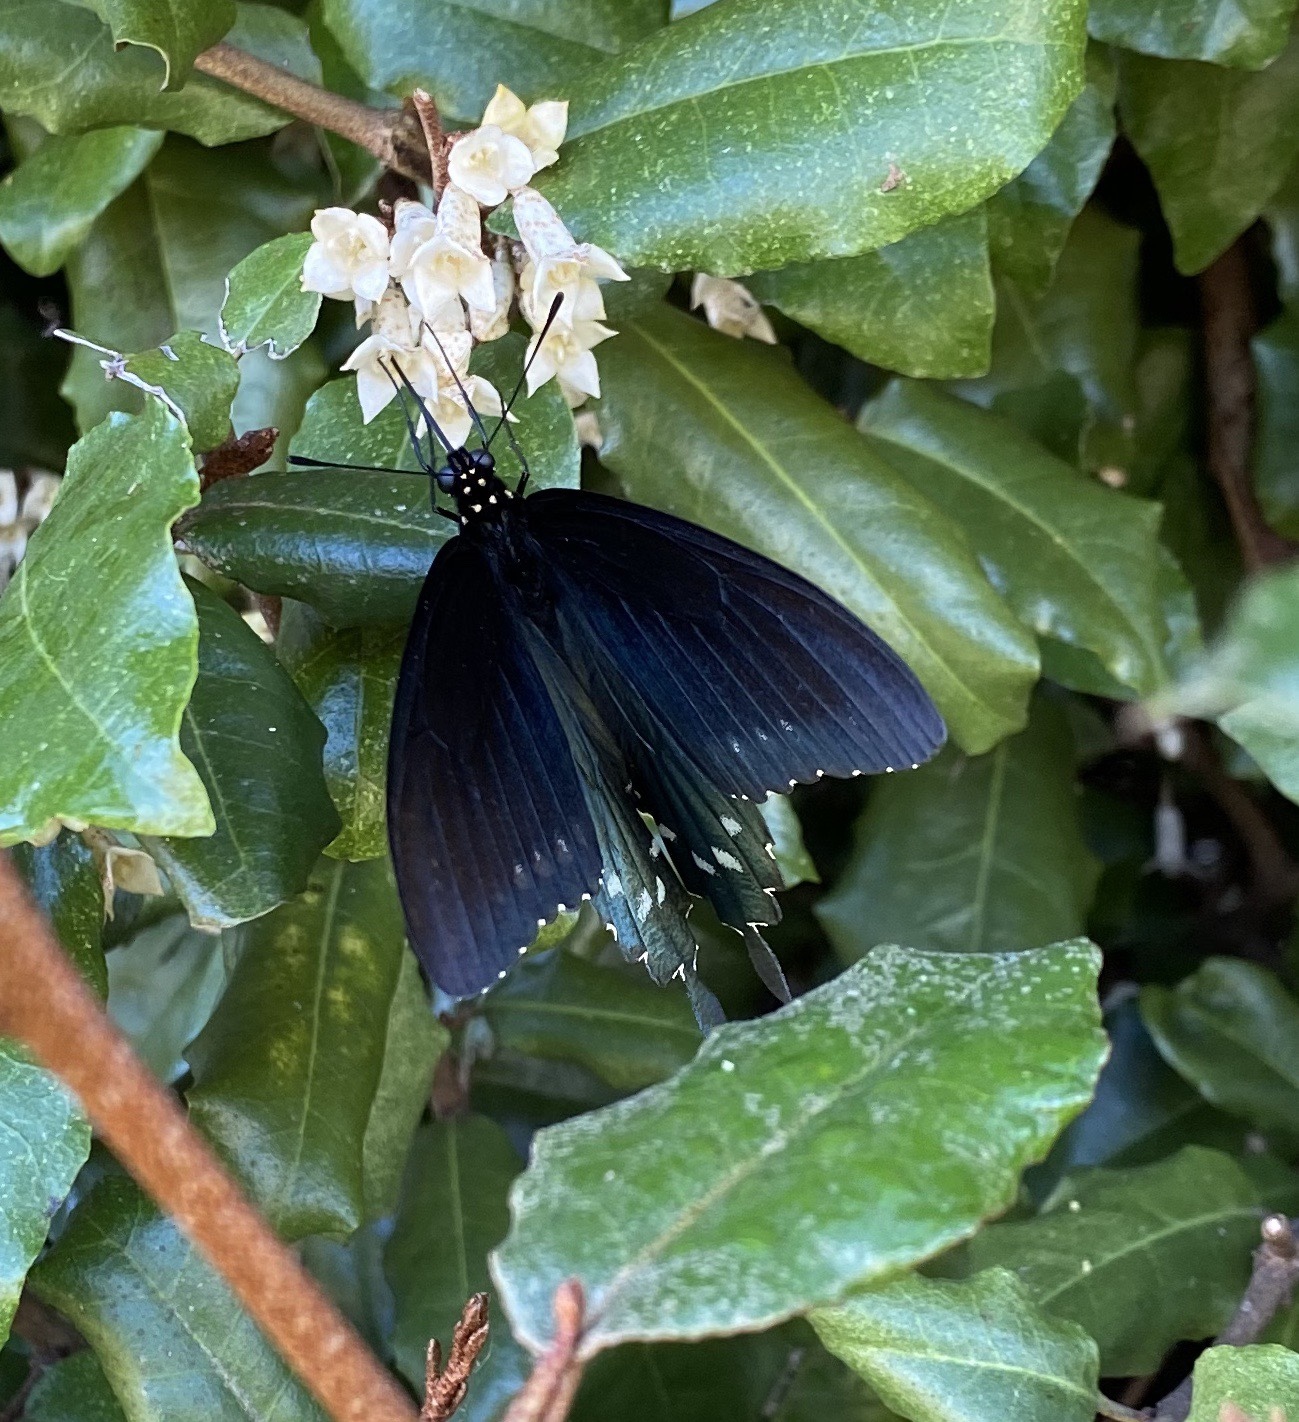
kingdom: Animalia
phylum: Arthropoda
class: Insecta
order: Lepidoptera
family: Papilionidae
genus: Battus
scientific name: Battus philenor
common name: Pipevine swallowtail
